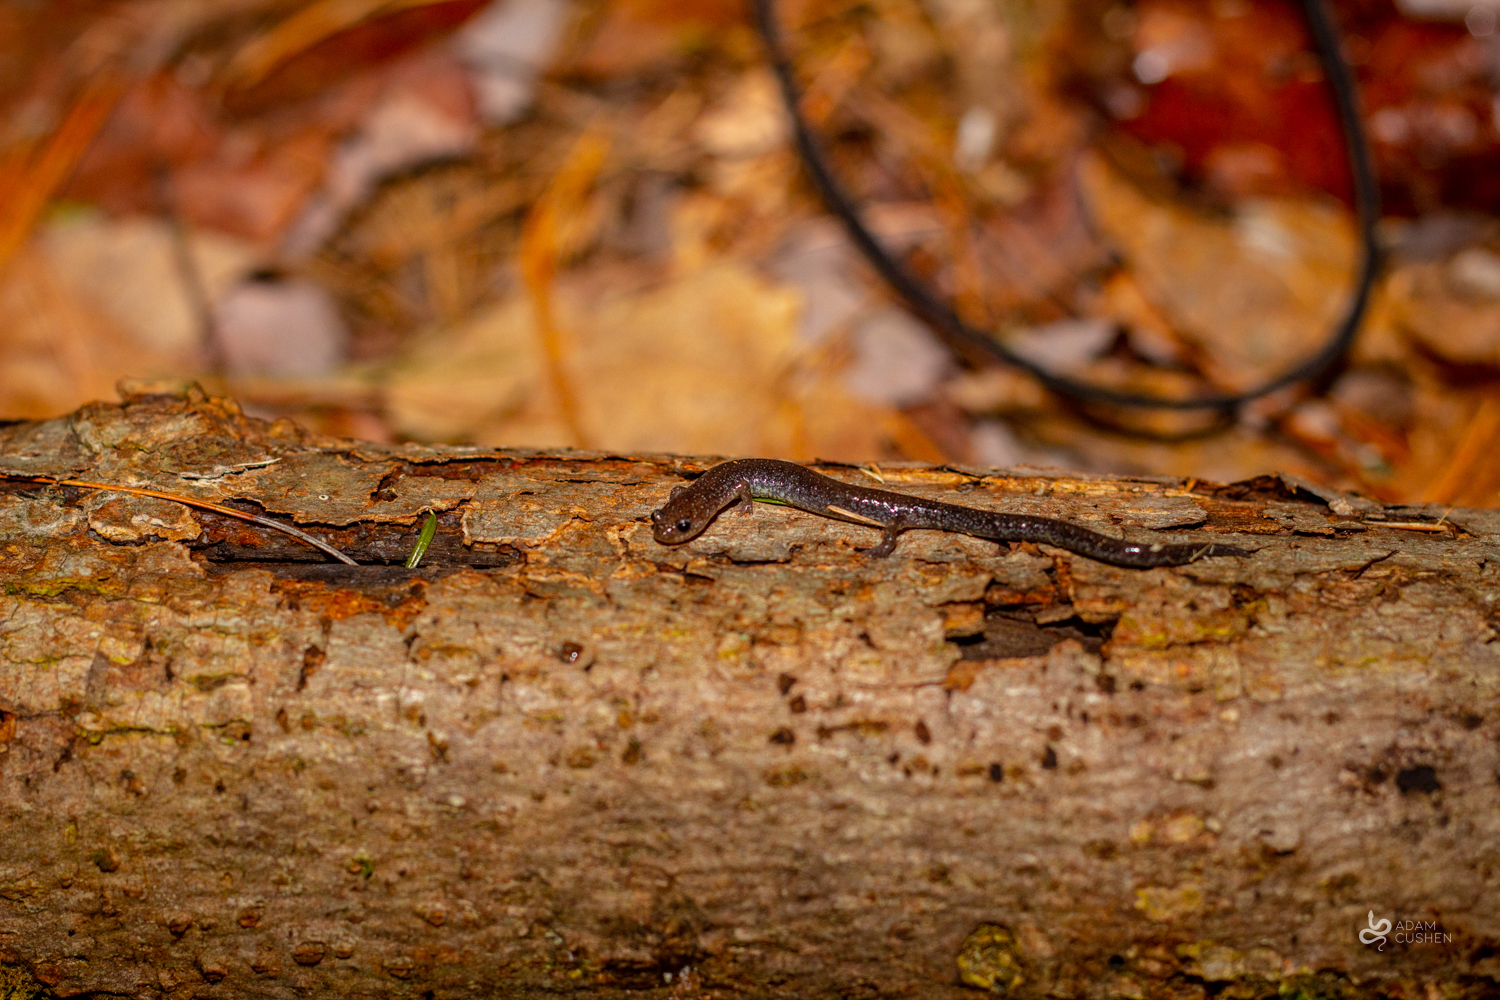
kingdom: Animalia
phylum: Chordata
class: Amphibia
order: Caudata
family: Plethodontidae
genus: Plethodon
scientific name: Plethodon cinereus
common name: Redback salamander
